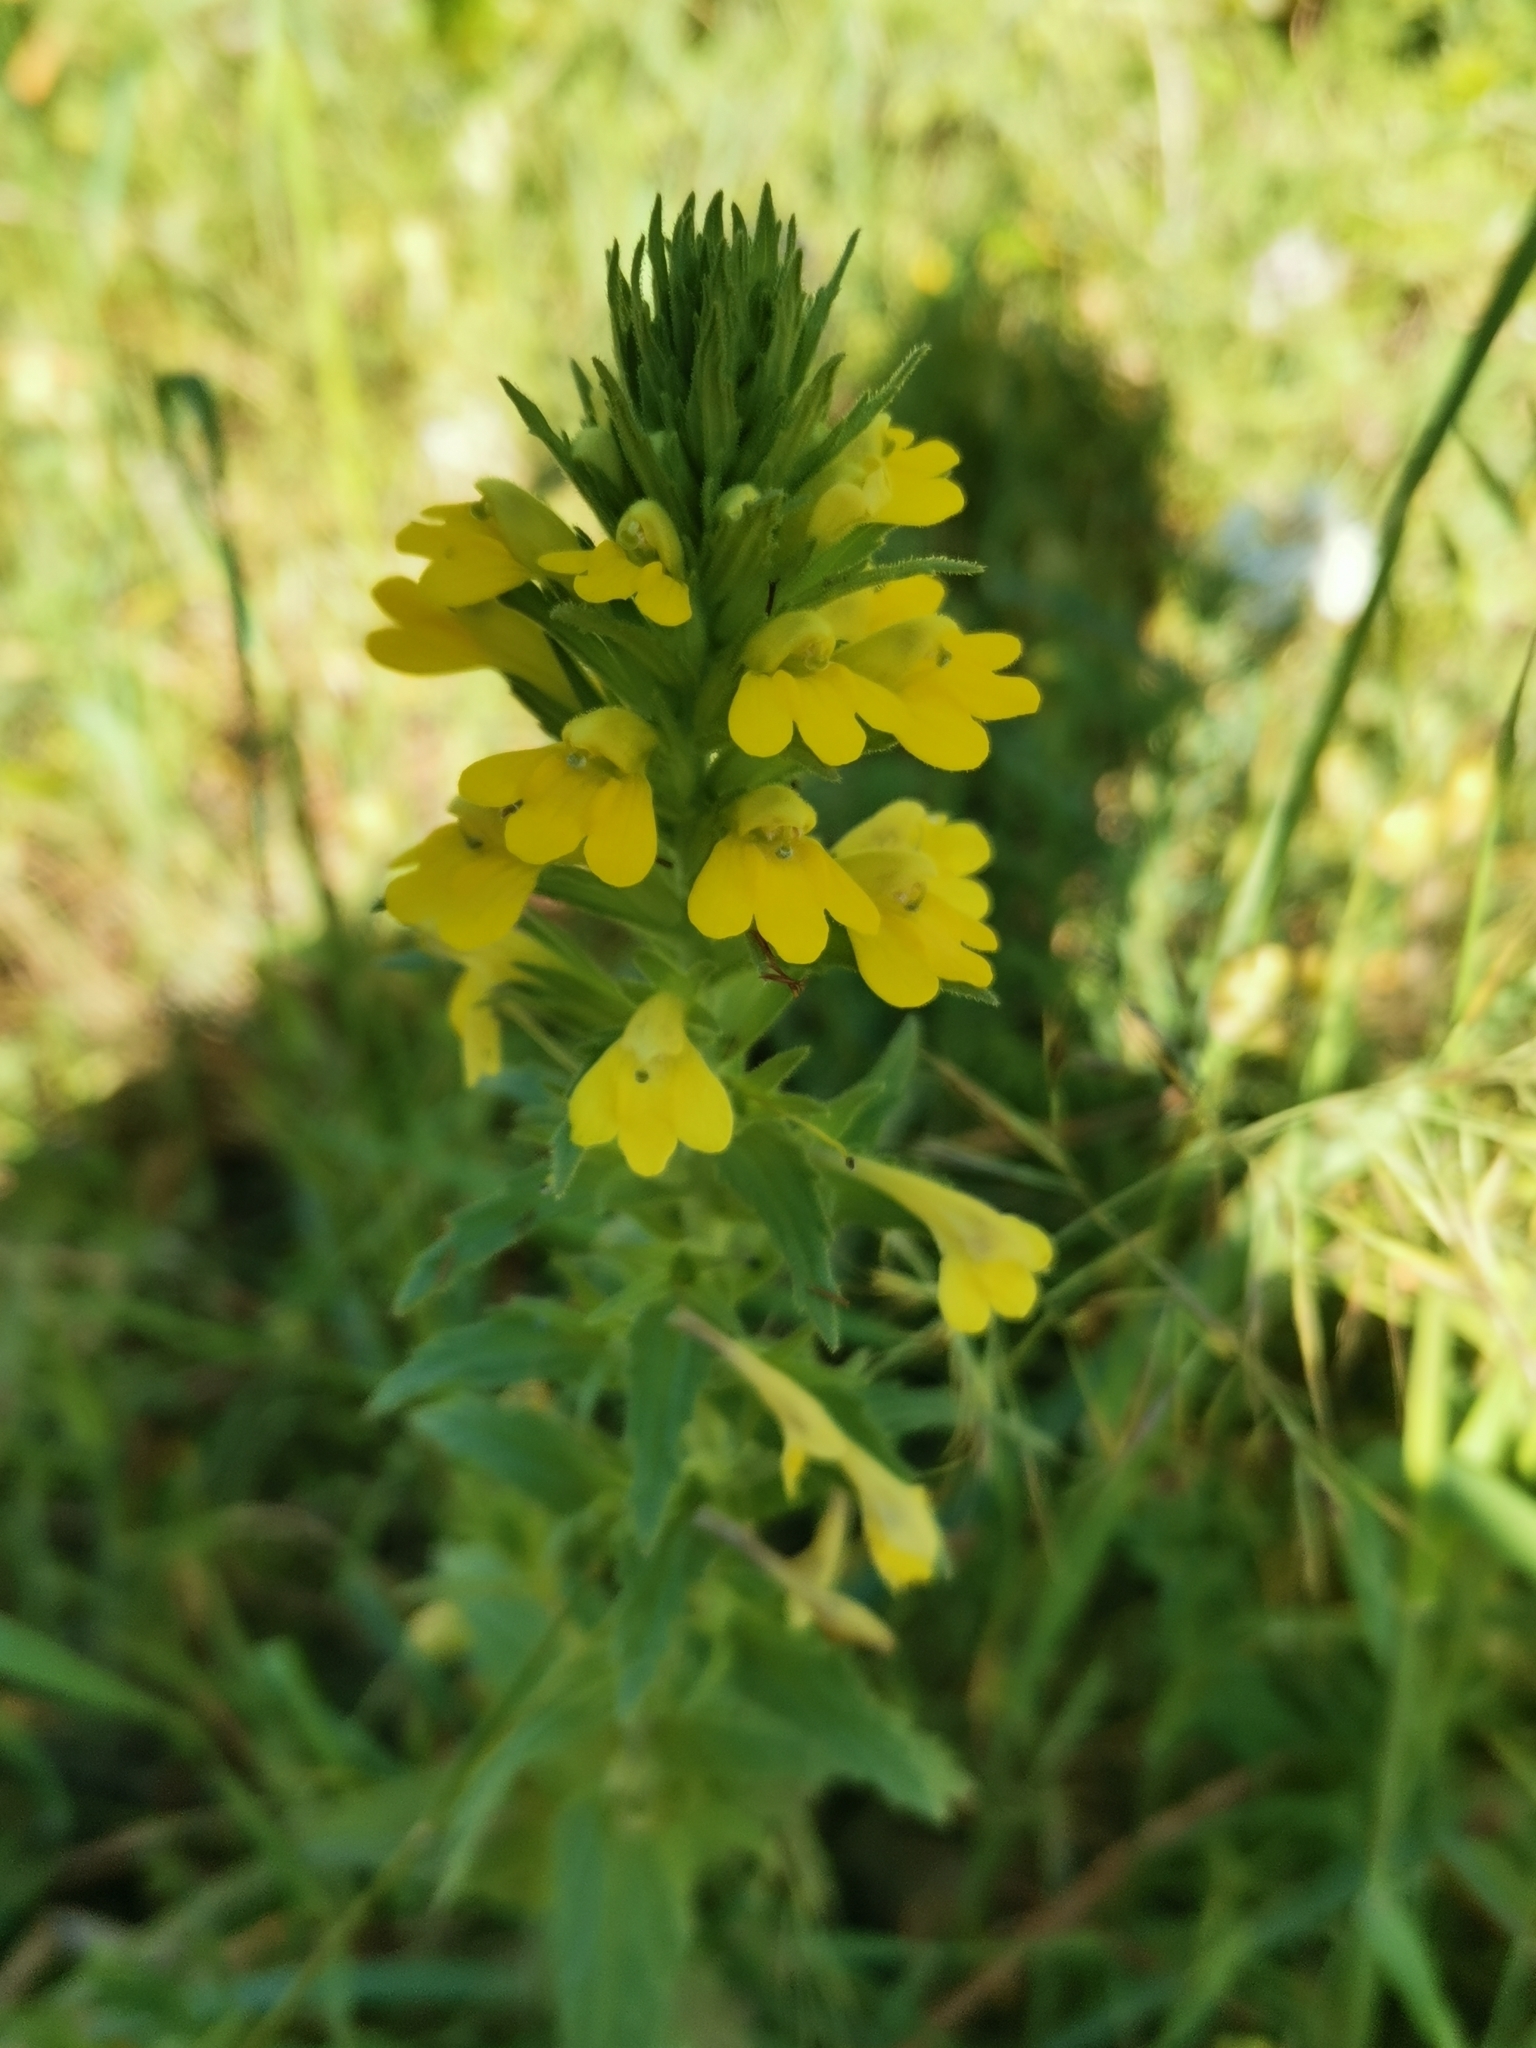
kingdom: Plantae
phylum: Tracheophyta
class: Magnoliopsida
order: Lamiales
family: Orobanchaceae
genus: Bellardia
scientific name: Bellardia viscosa
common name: Sticky parentucellia
